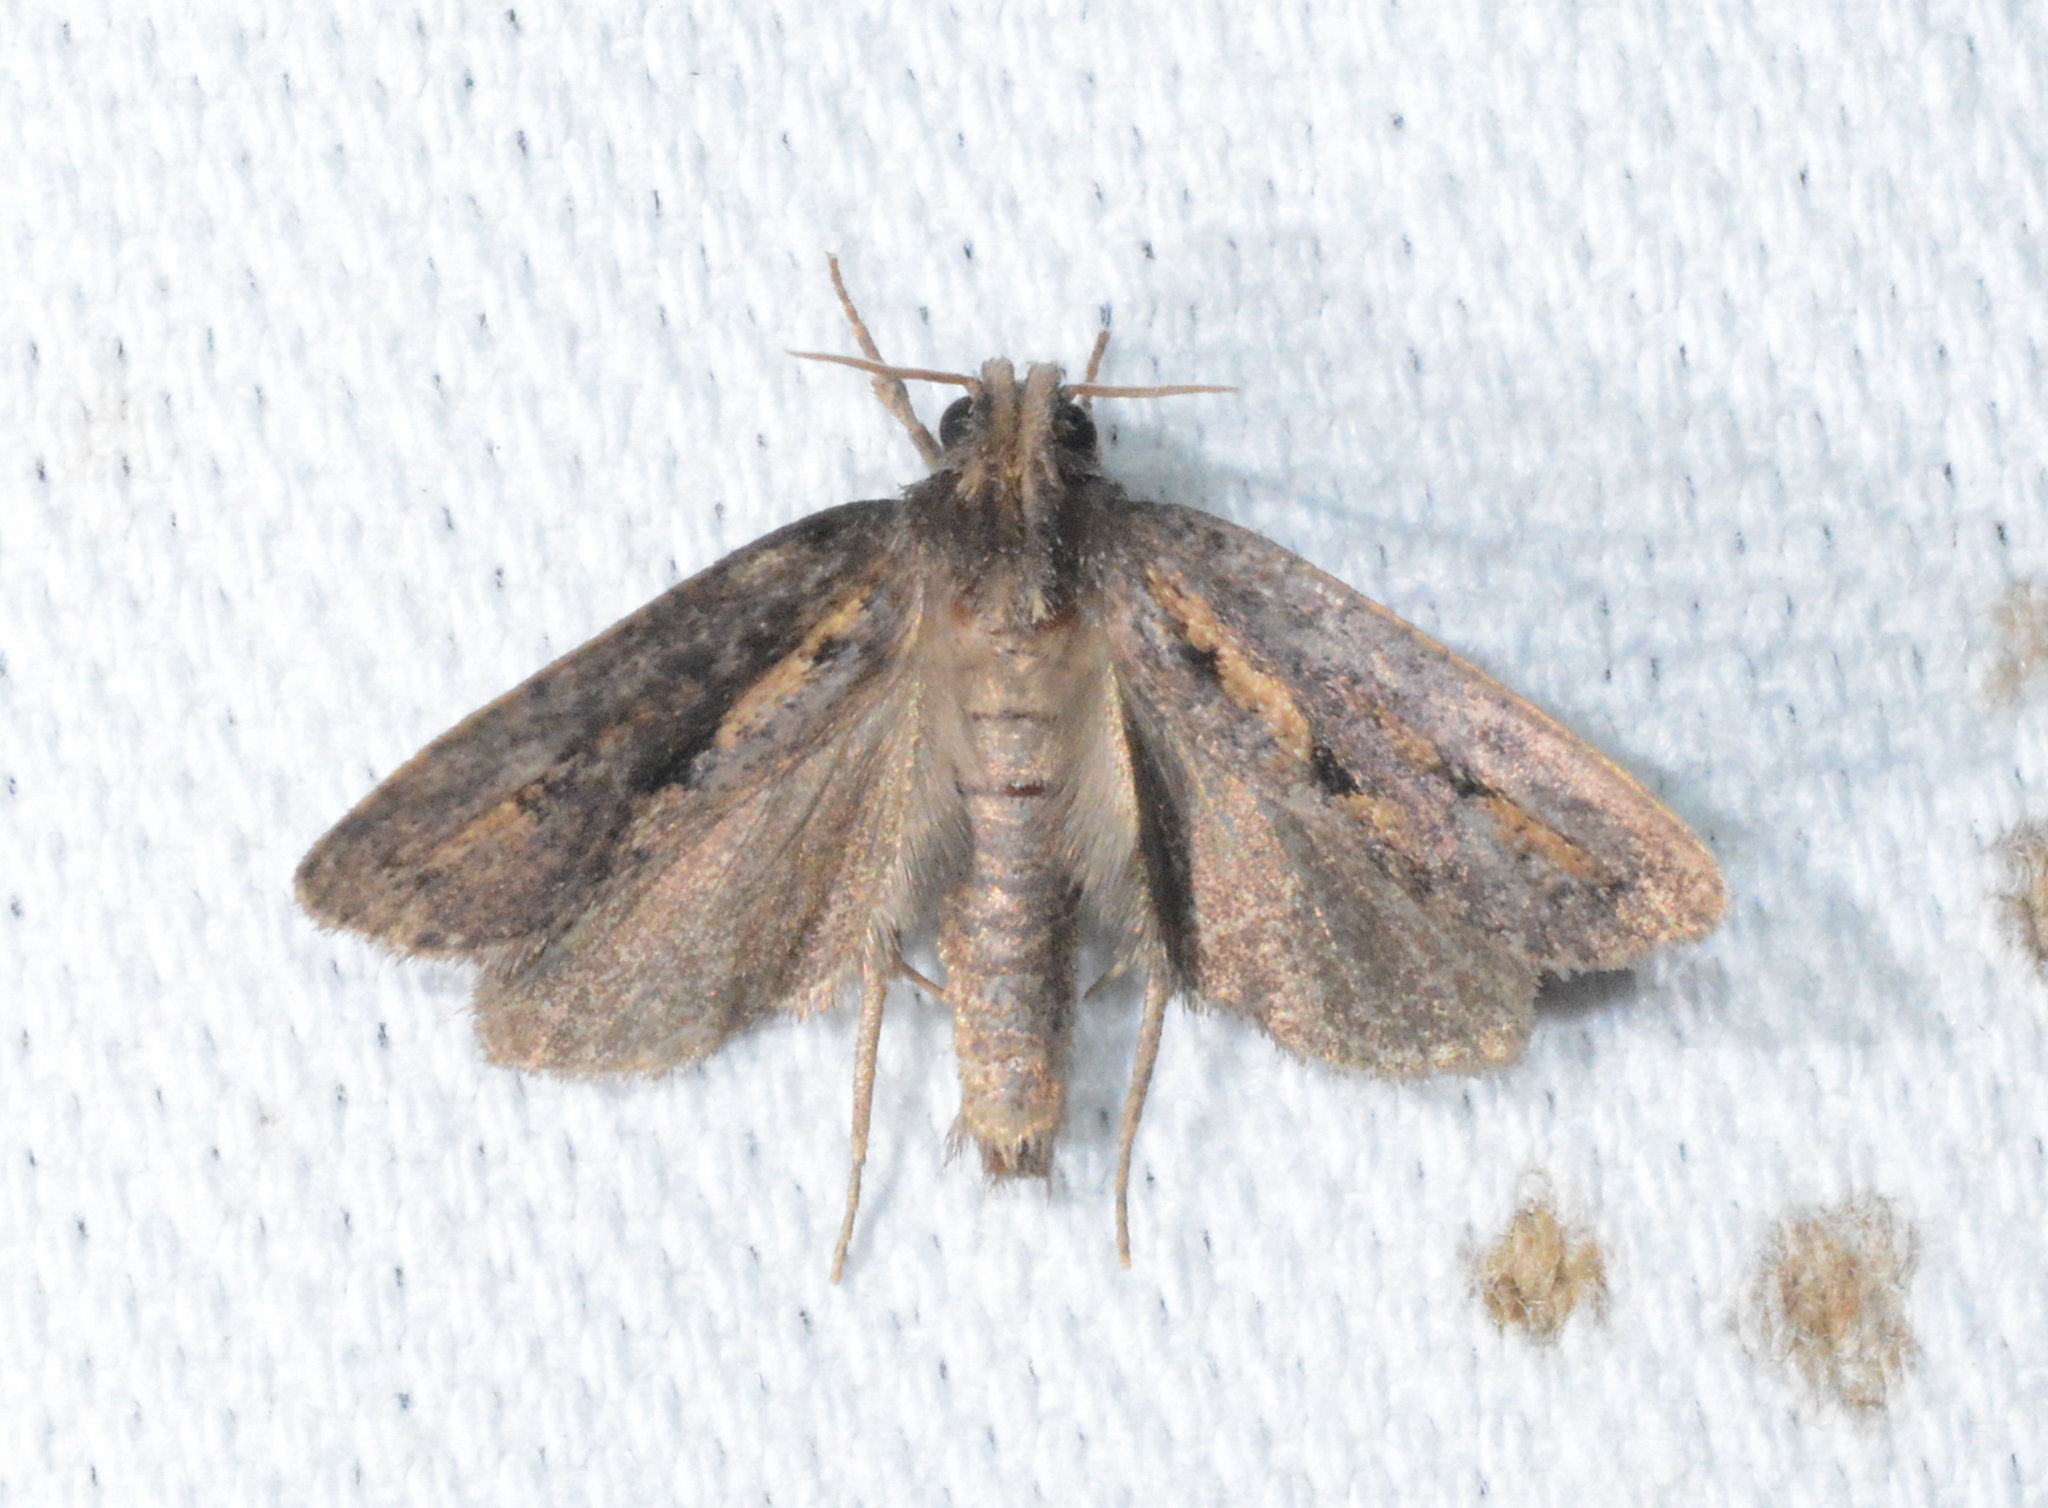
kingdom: Animalia
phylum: Arthropoda
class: Insecta
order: Lepidoptera
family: Tineidae
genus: Acrolophus
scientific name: Acrolophus popeanella
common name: Clemens' grass tubeworm moth
